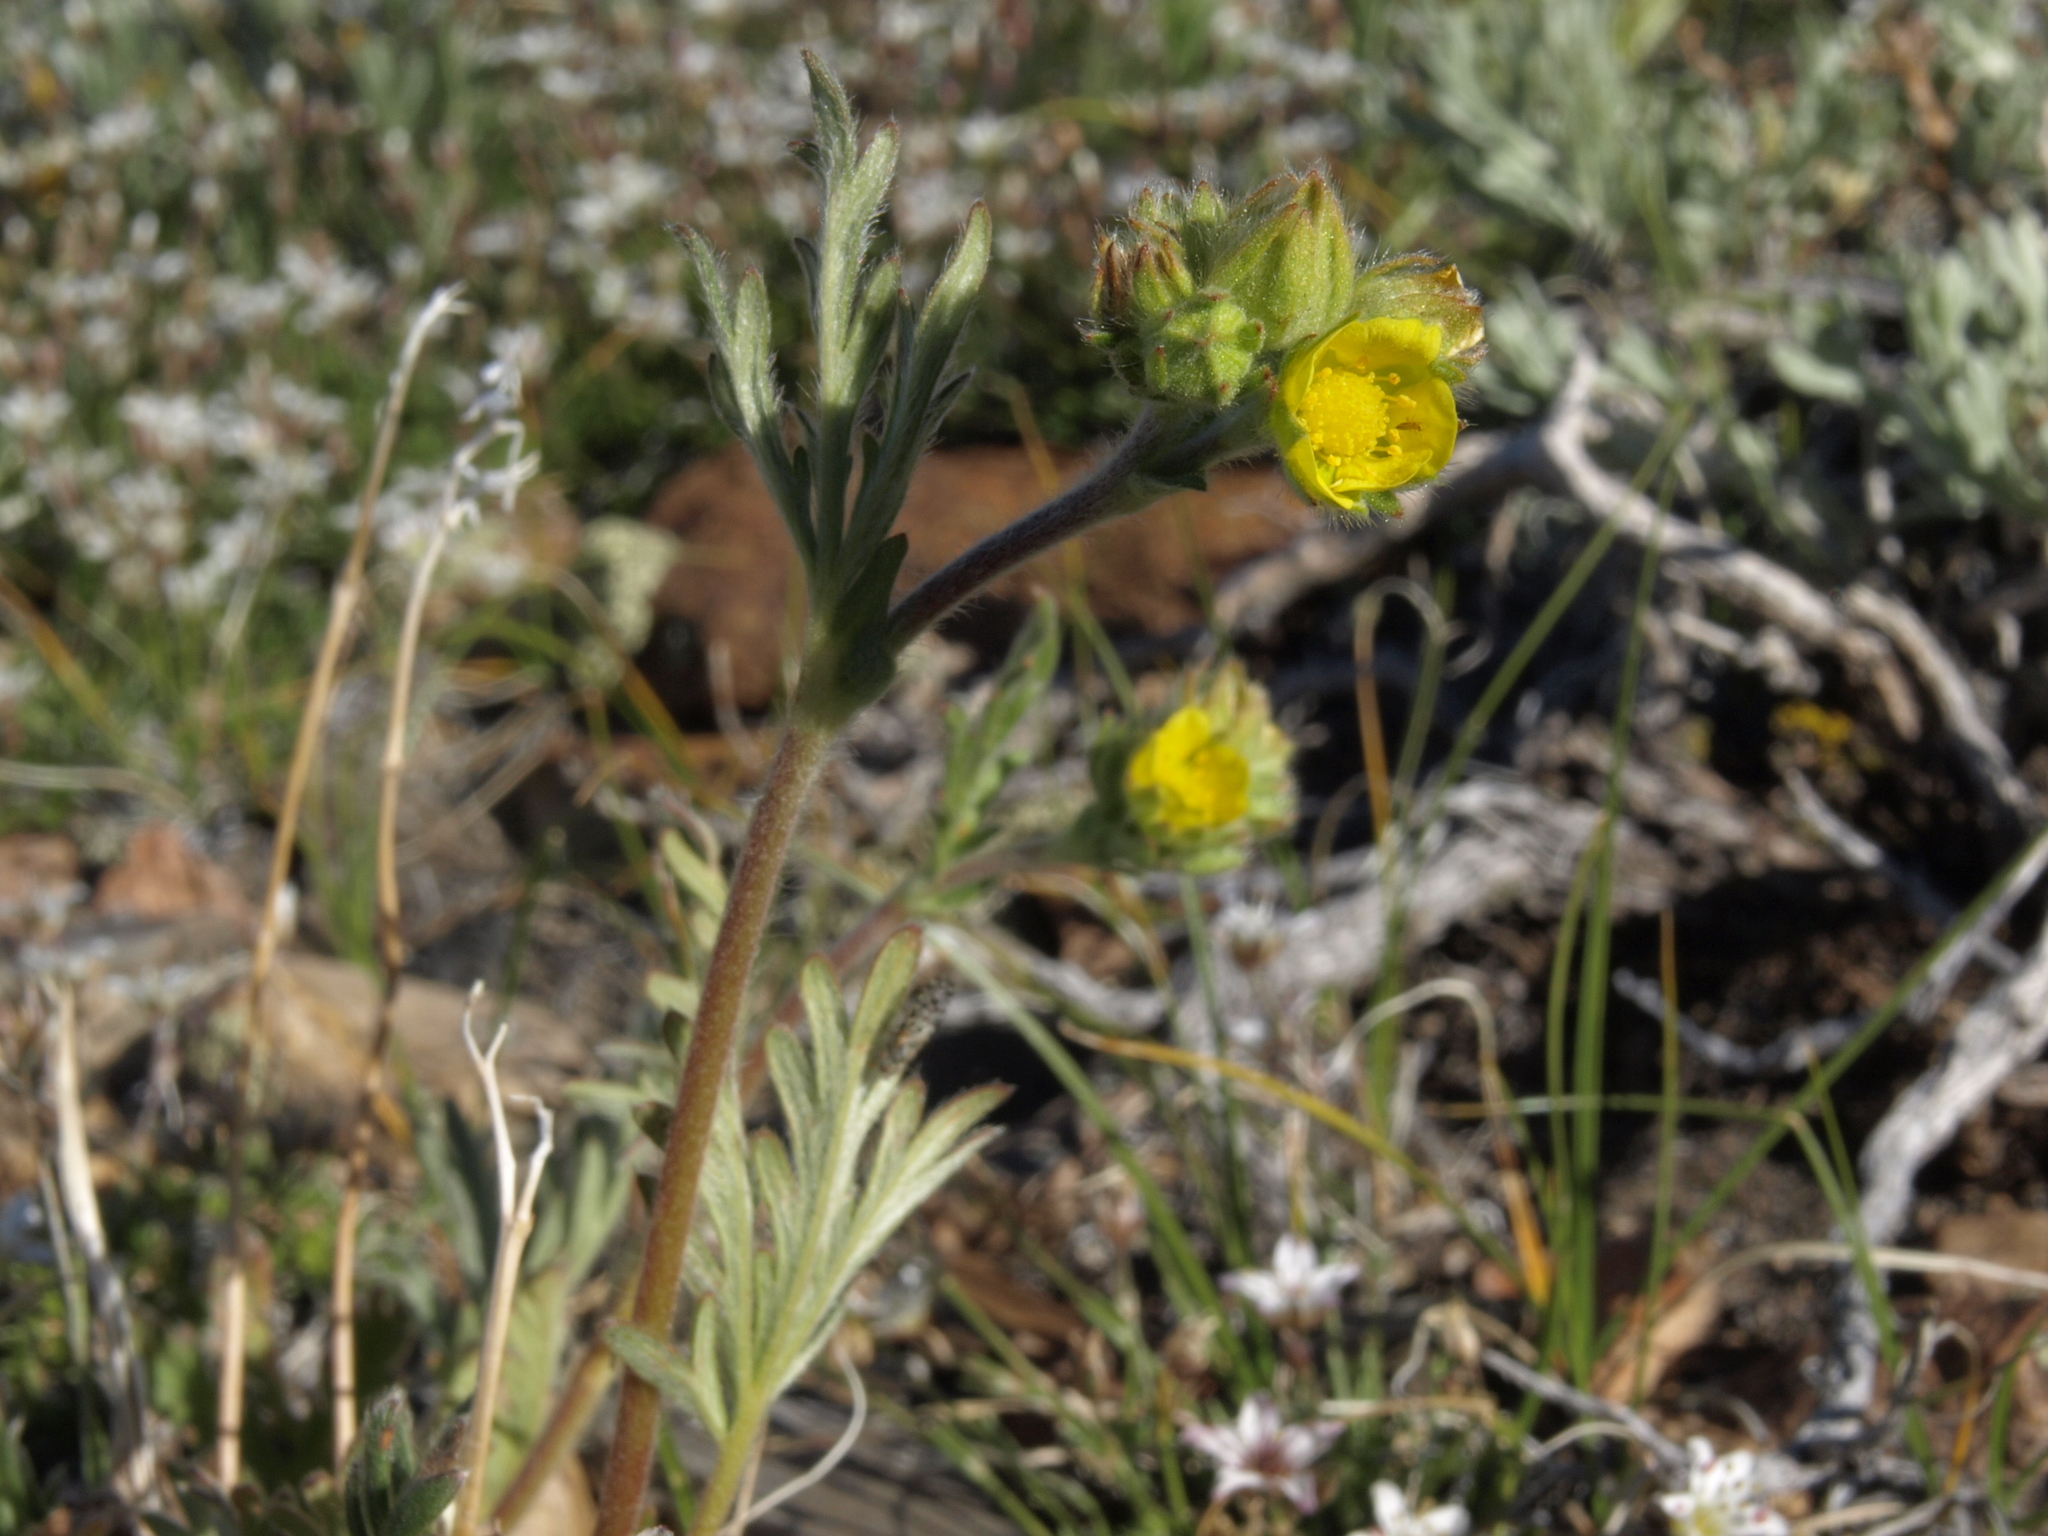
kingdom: Plantae
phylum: Tracheophyta
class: Magnoliopsida
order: Rosales
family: Rosaceae
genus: Potentilla
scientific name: Potentilla jepsonii
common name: Jepson's cinquefoil
